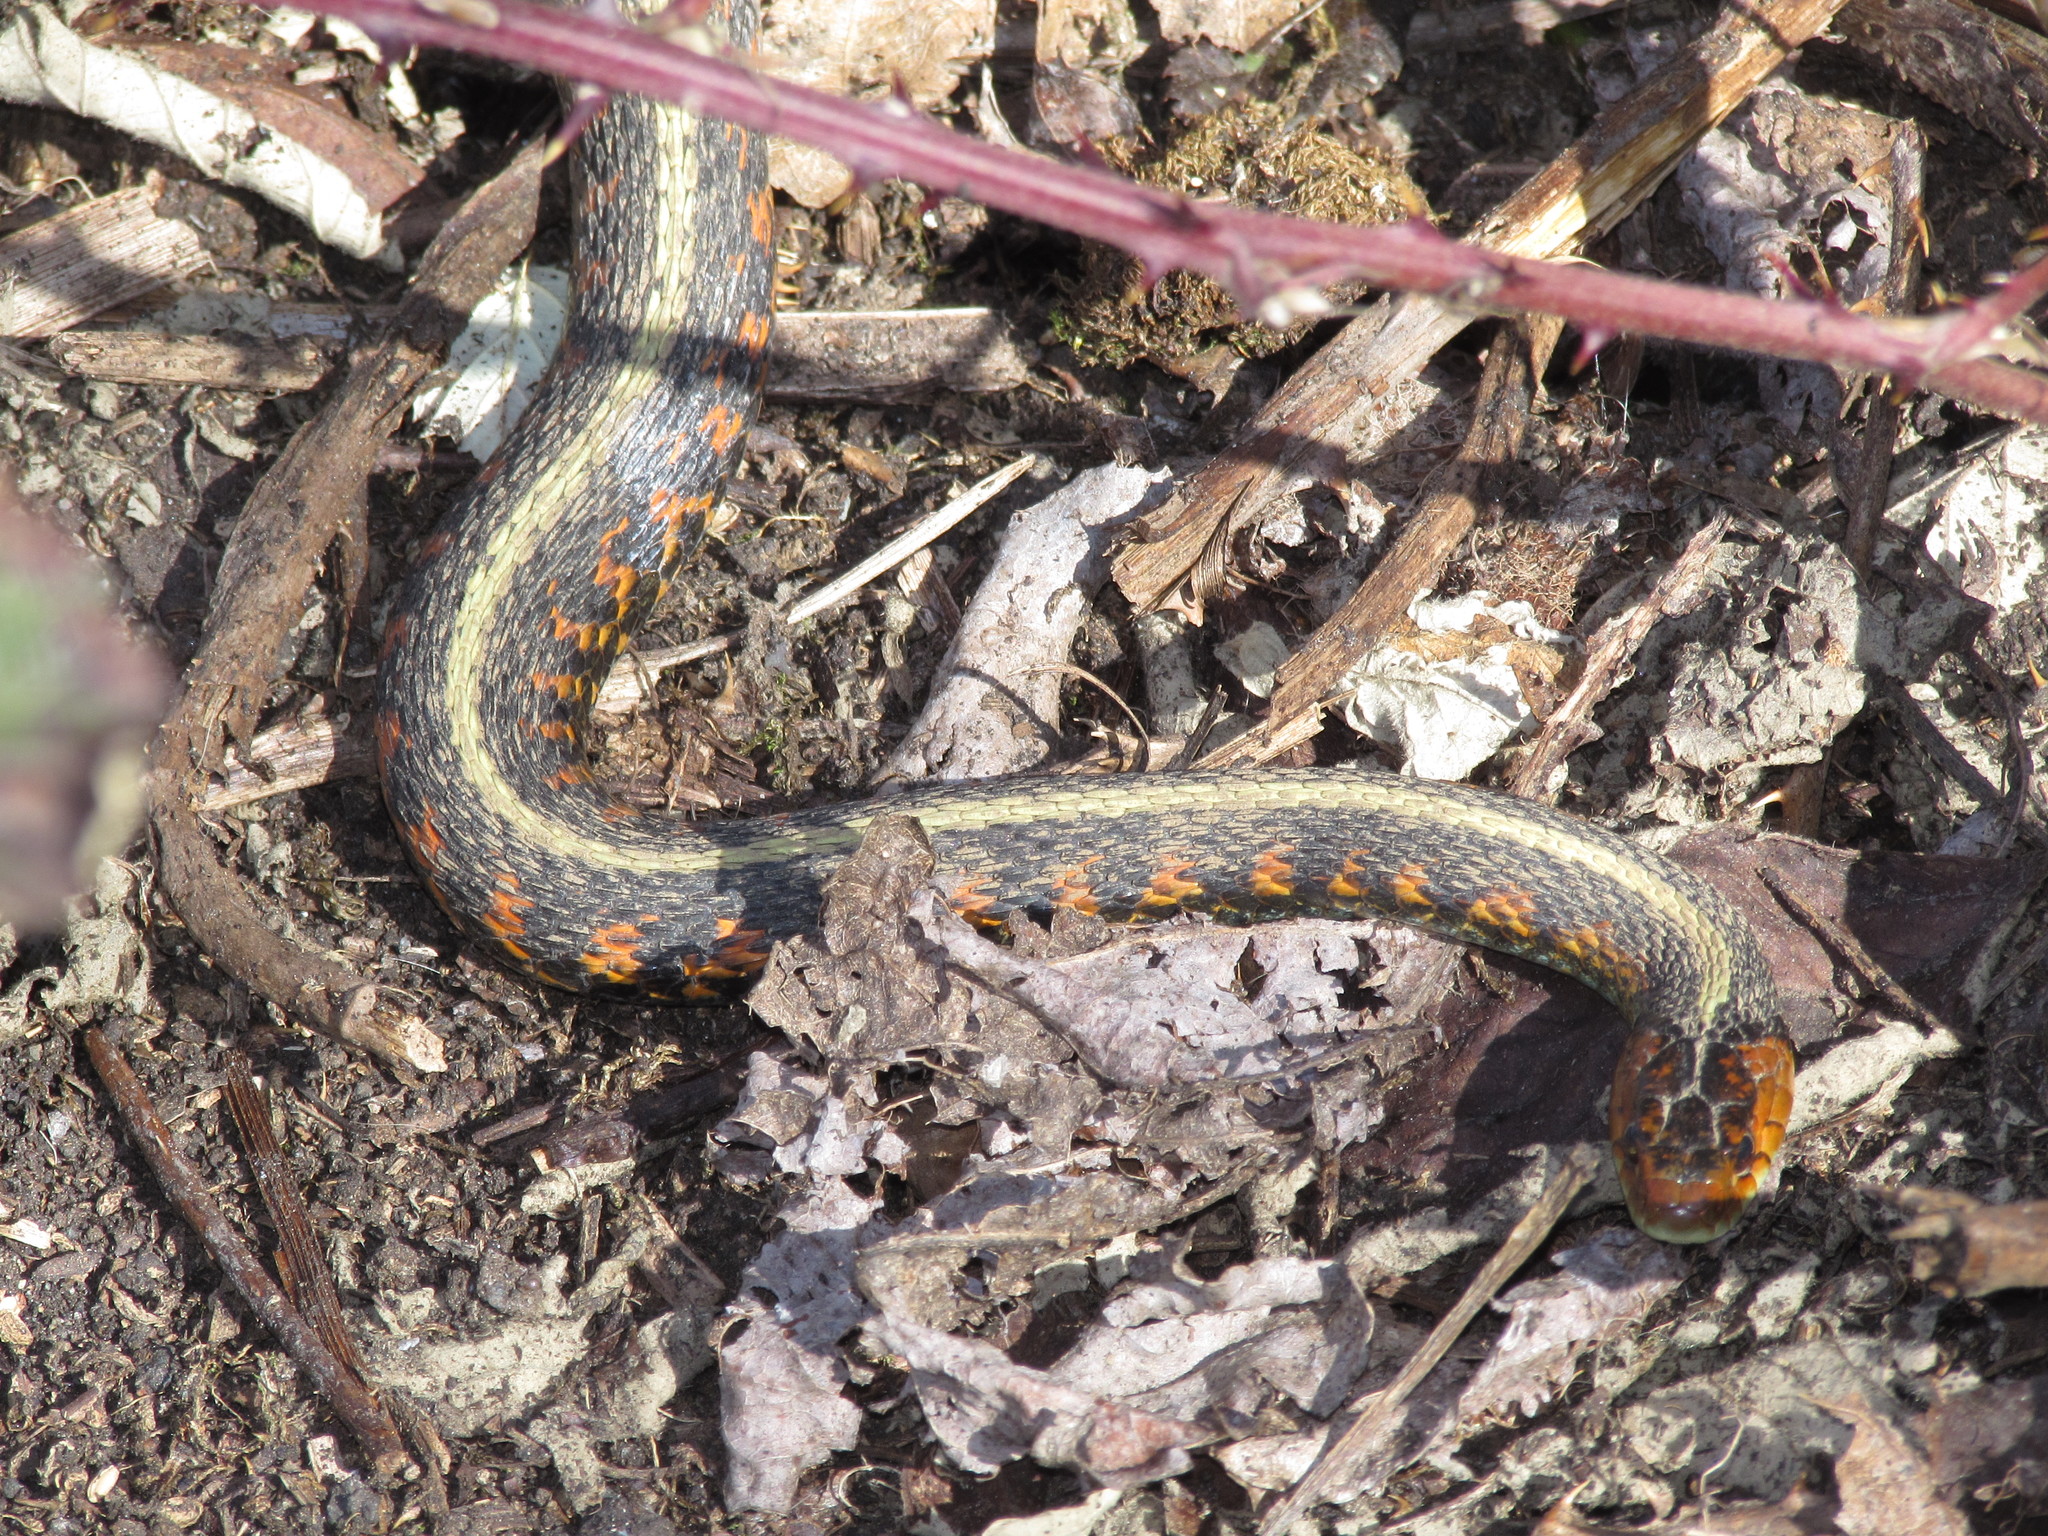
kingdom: Animalia
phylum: Chordata
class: Squamata
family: Colubridae
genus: Thamnophis
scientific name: Thamnophis sirtalis
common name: Common garter snake
